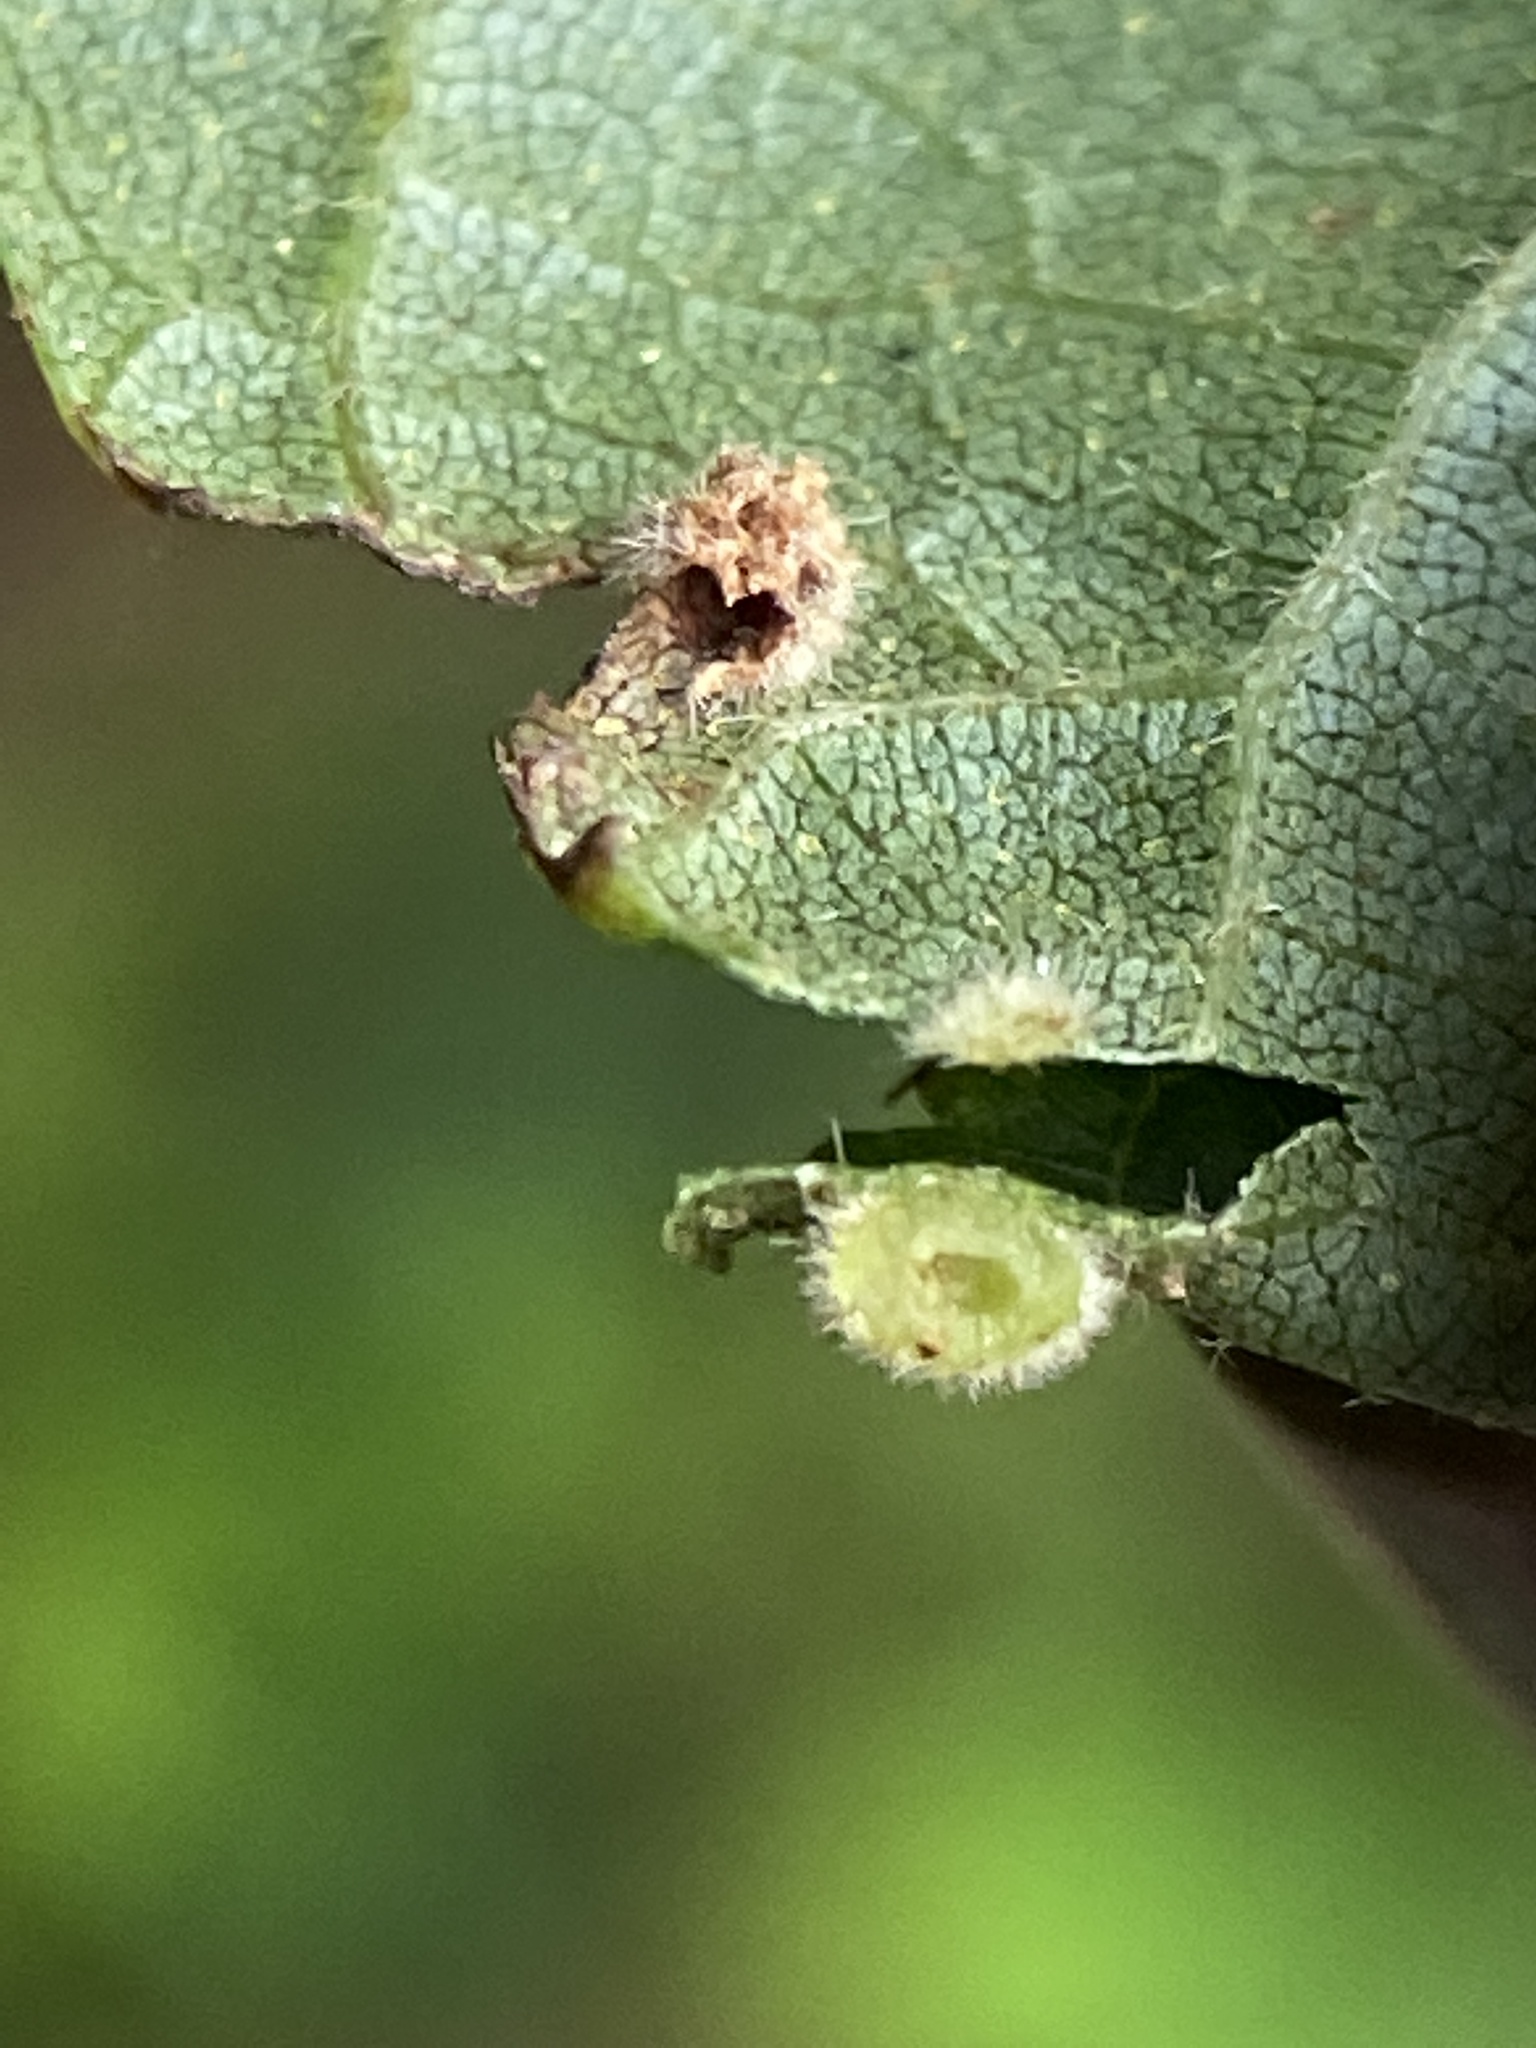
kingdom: Animalia
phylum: Arthropoda
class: Insecta
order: Diptera
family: Cecidomyiidae
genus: Caryomyia
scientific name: Caryomyia purpurea
